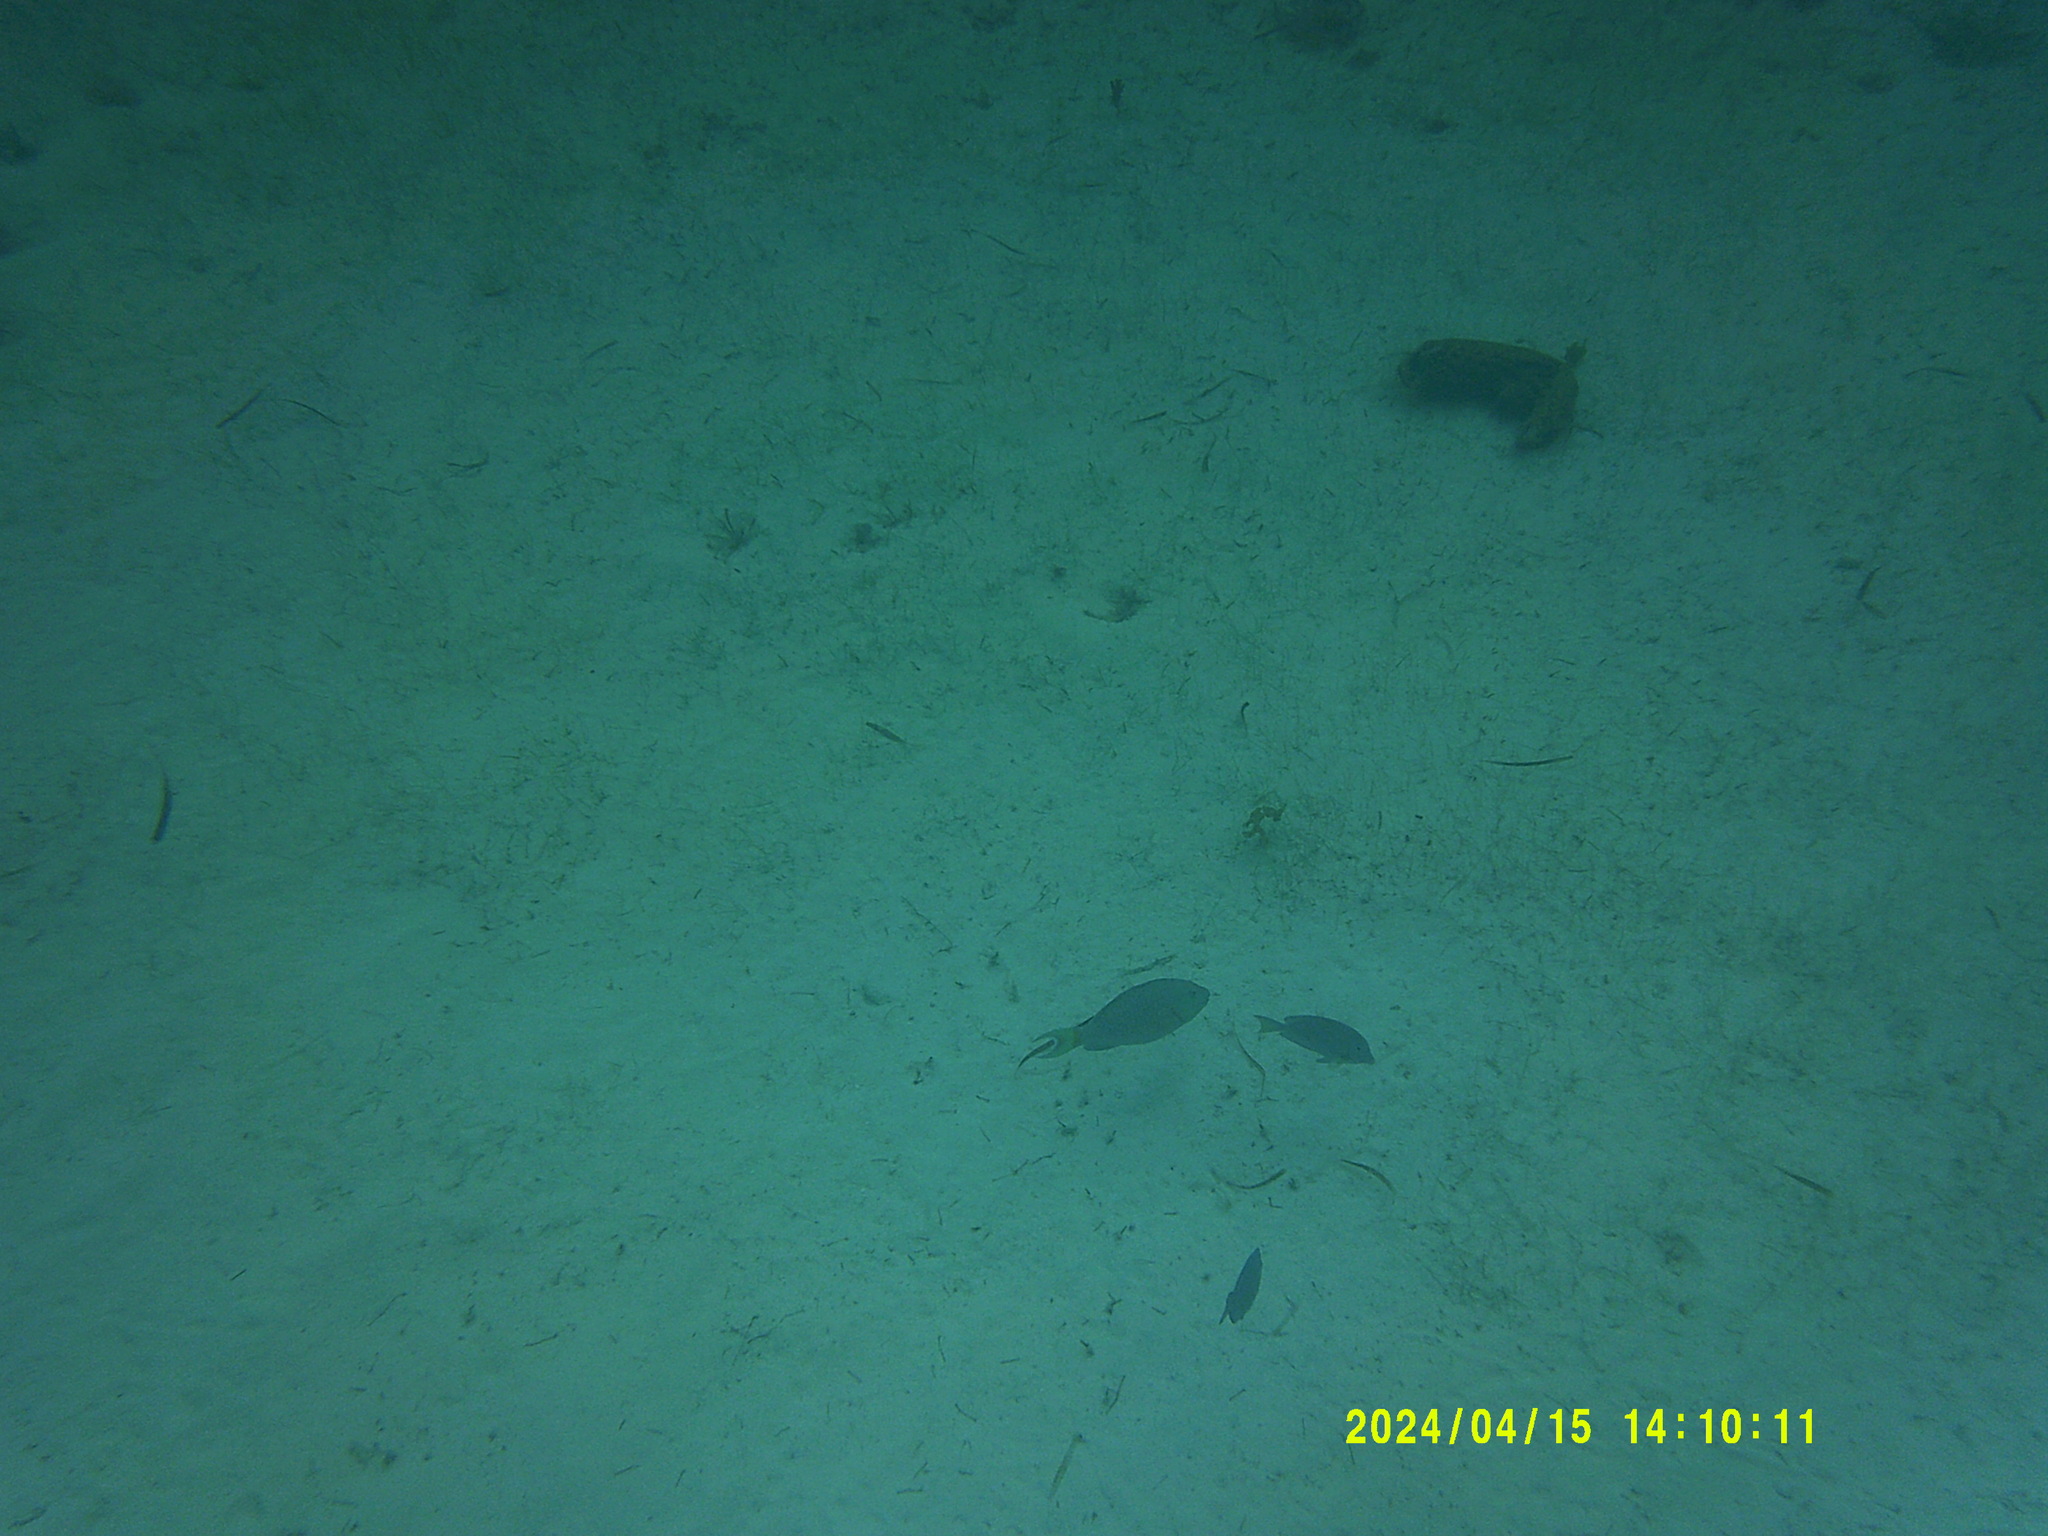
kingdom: Animalia
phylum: Chordata
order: Perciformes
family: Scaridae
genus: Sparisoma
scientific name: Sparisoma rubripinne
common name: Redfin parrotfish
